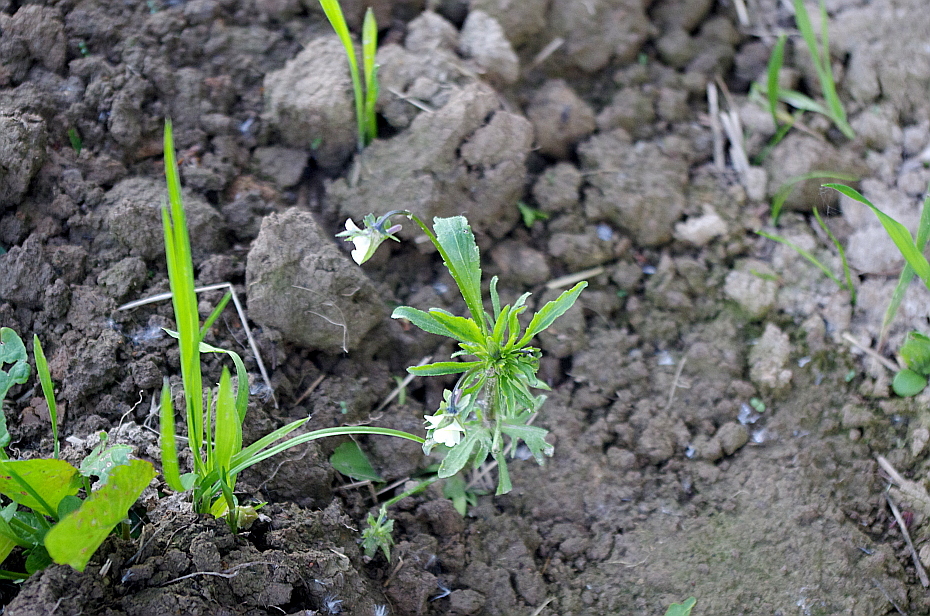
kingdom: Plantae
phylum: Tracheophyta
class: Magnoliopsida
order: Malpighiales
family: Violaceae
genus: Viola
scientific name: Viola arvensis
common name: Field pansy
